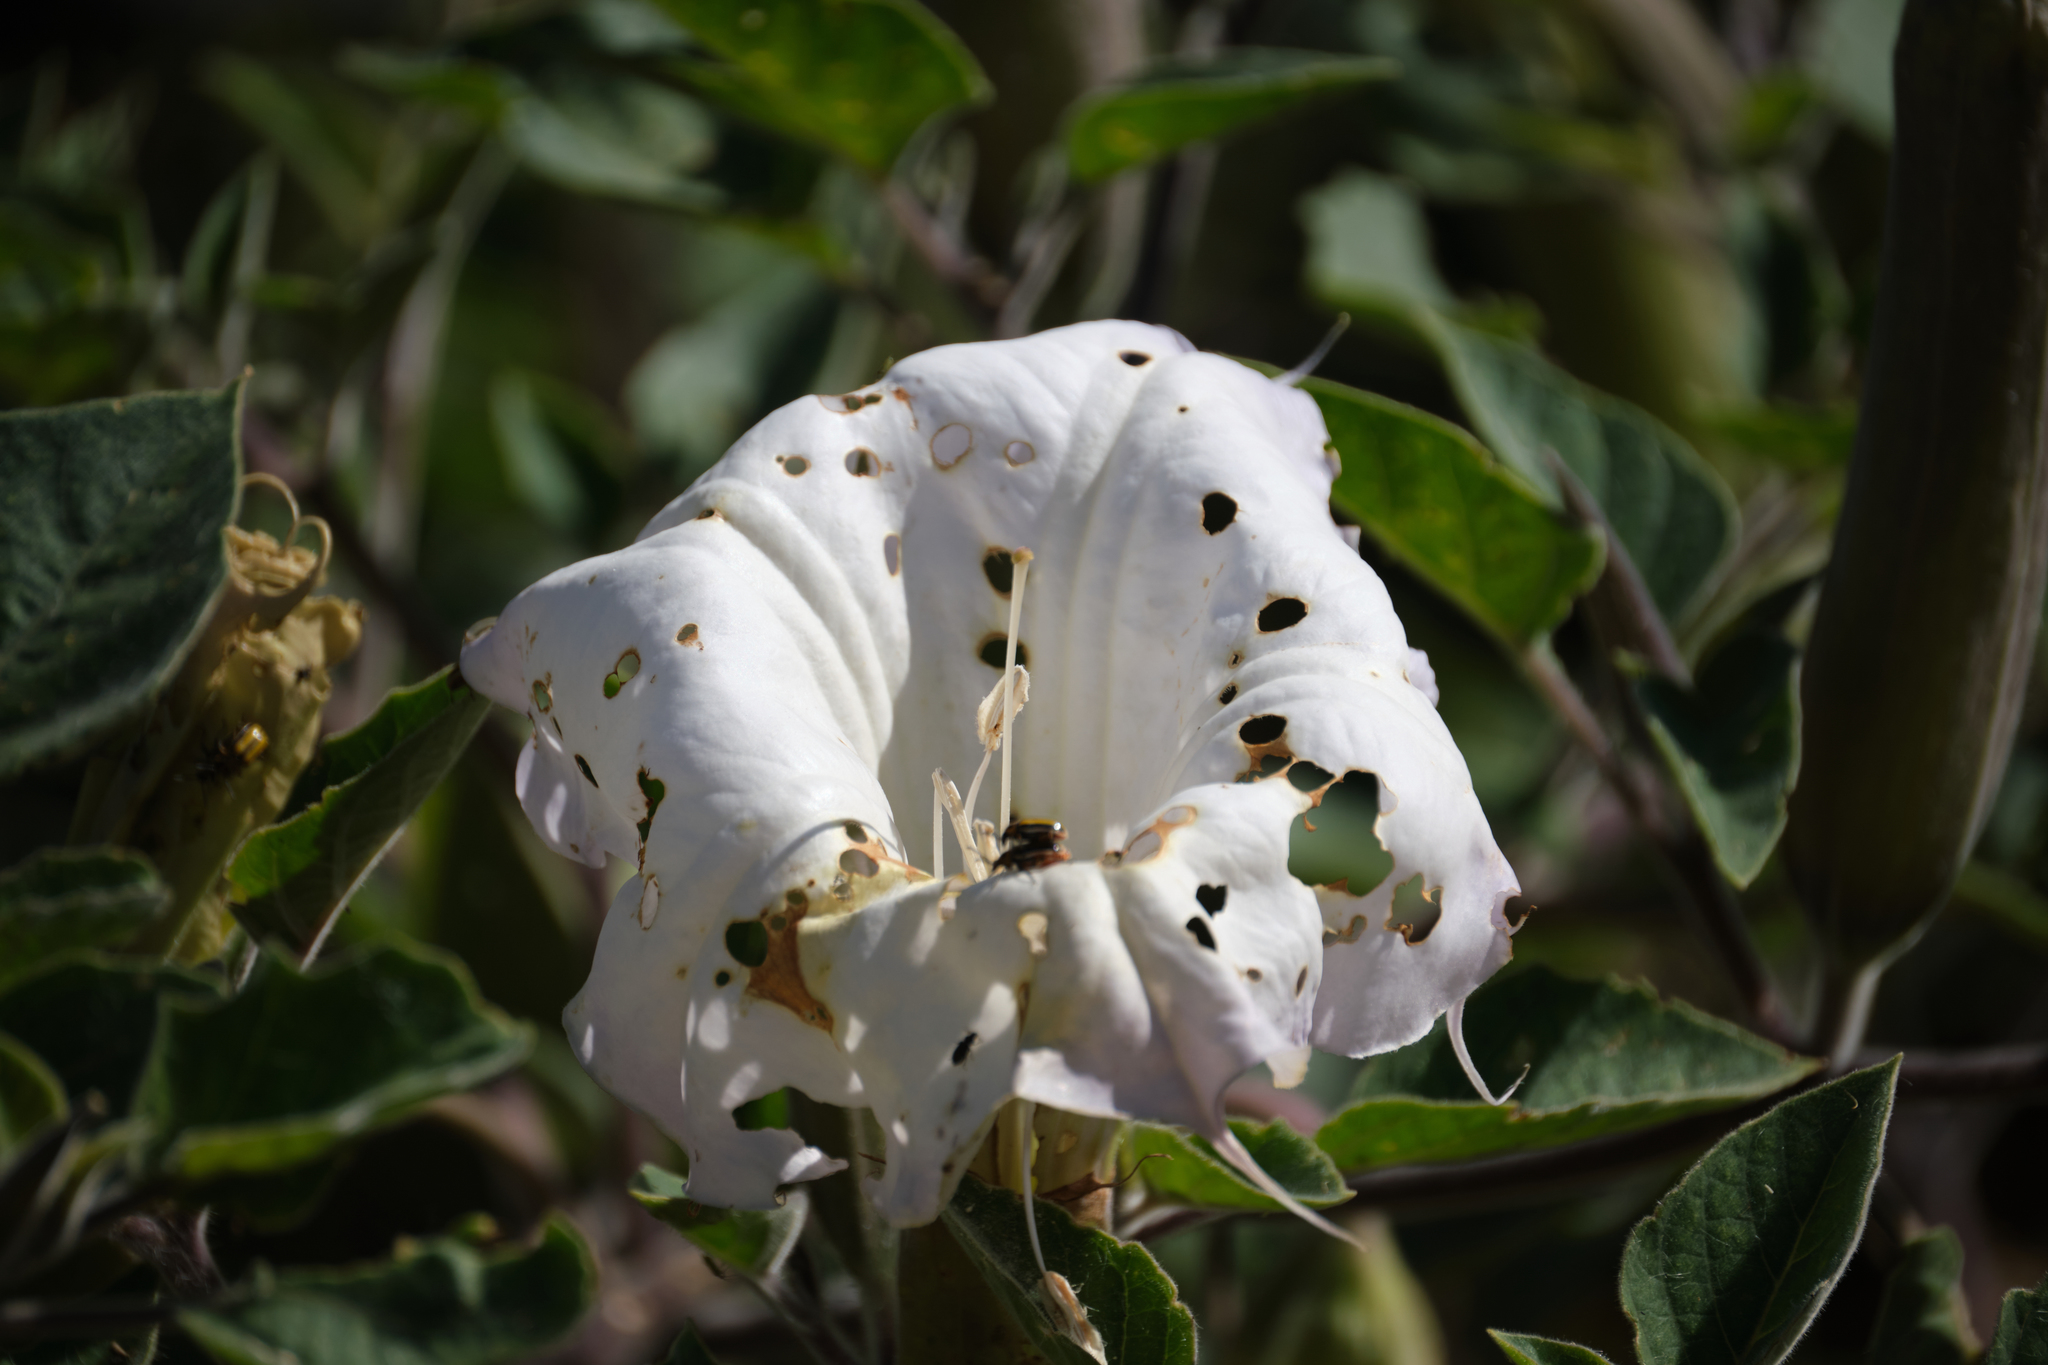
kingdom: Plantae
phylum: Tracheophyta
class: Magnoliopsida
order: Solanales
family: Solanaceae
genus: Datura
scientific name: Datura wrightii
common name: Sacred thorn-apple
